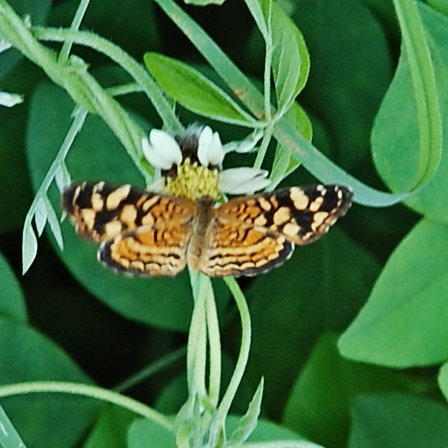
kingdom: Animalia
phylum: Arthropoda
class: Insecta
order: Lepidoptera
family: Nymphalidae
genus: Anthanassa
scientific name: Anthanassa frisia
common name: Cuban crescent
